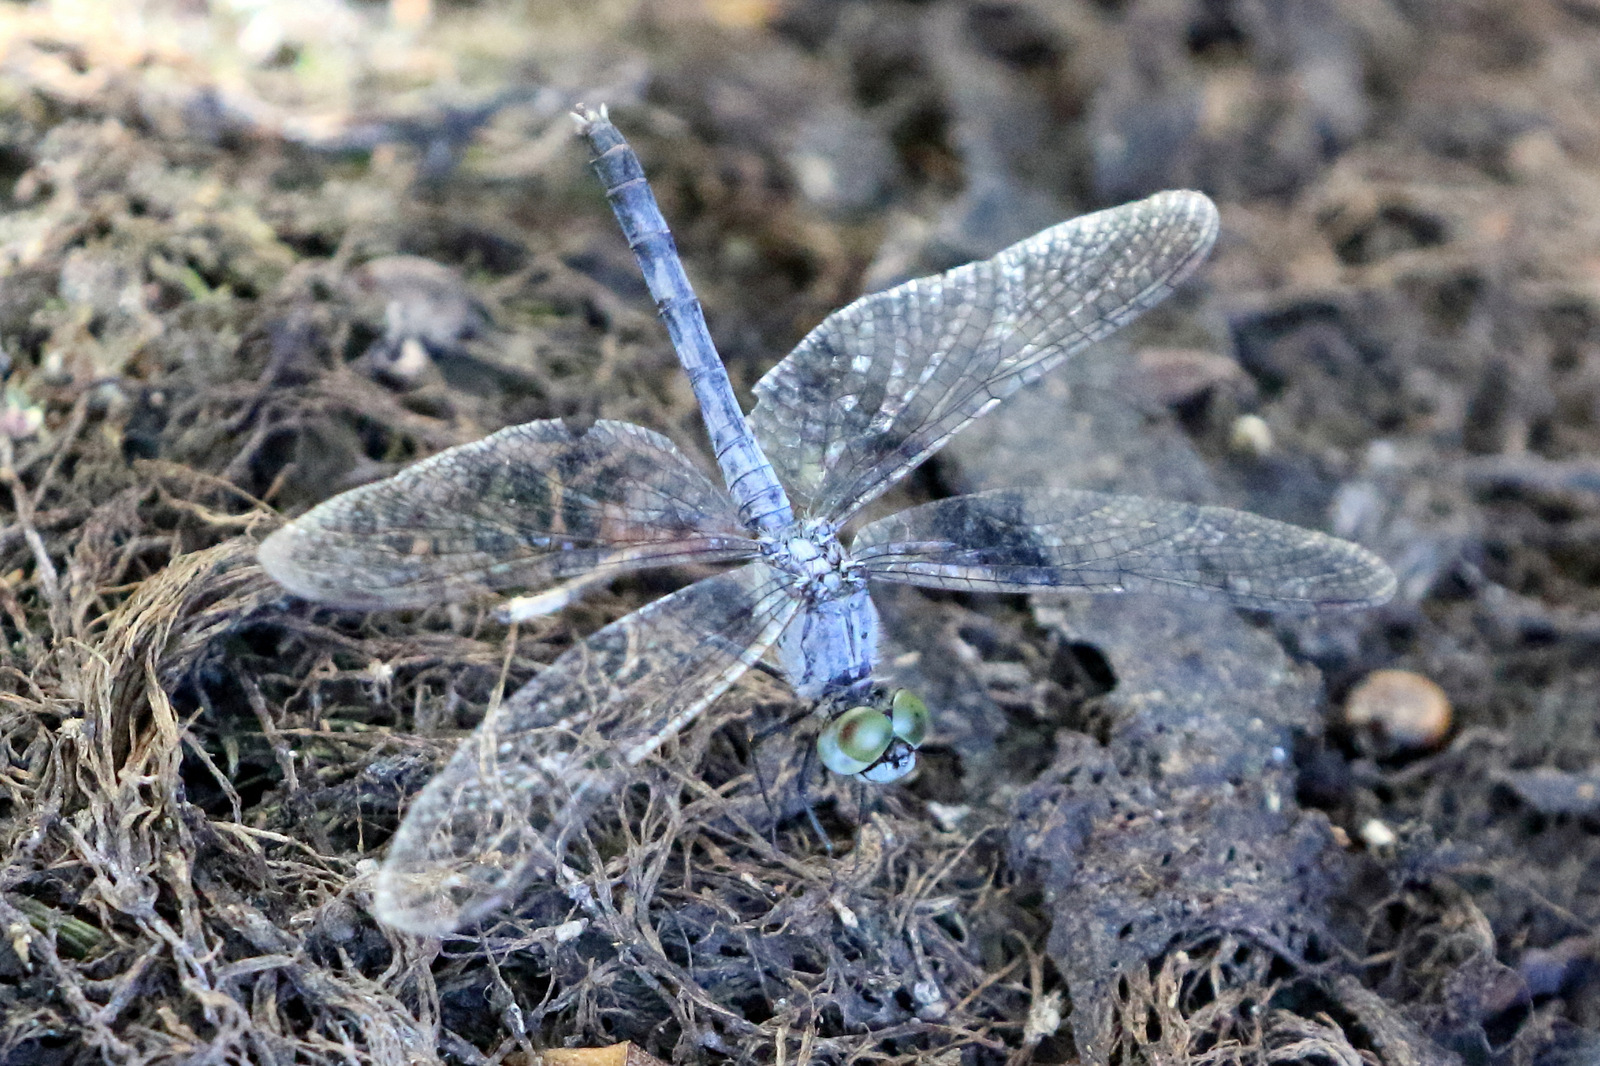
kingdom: Animalia
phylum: Arthropoda
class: Insecta
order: Odonata
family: Libellulidae
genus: Diplacodes
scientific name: Diplacodes trivialis
